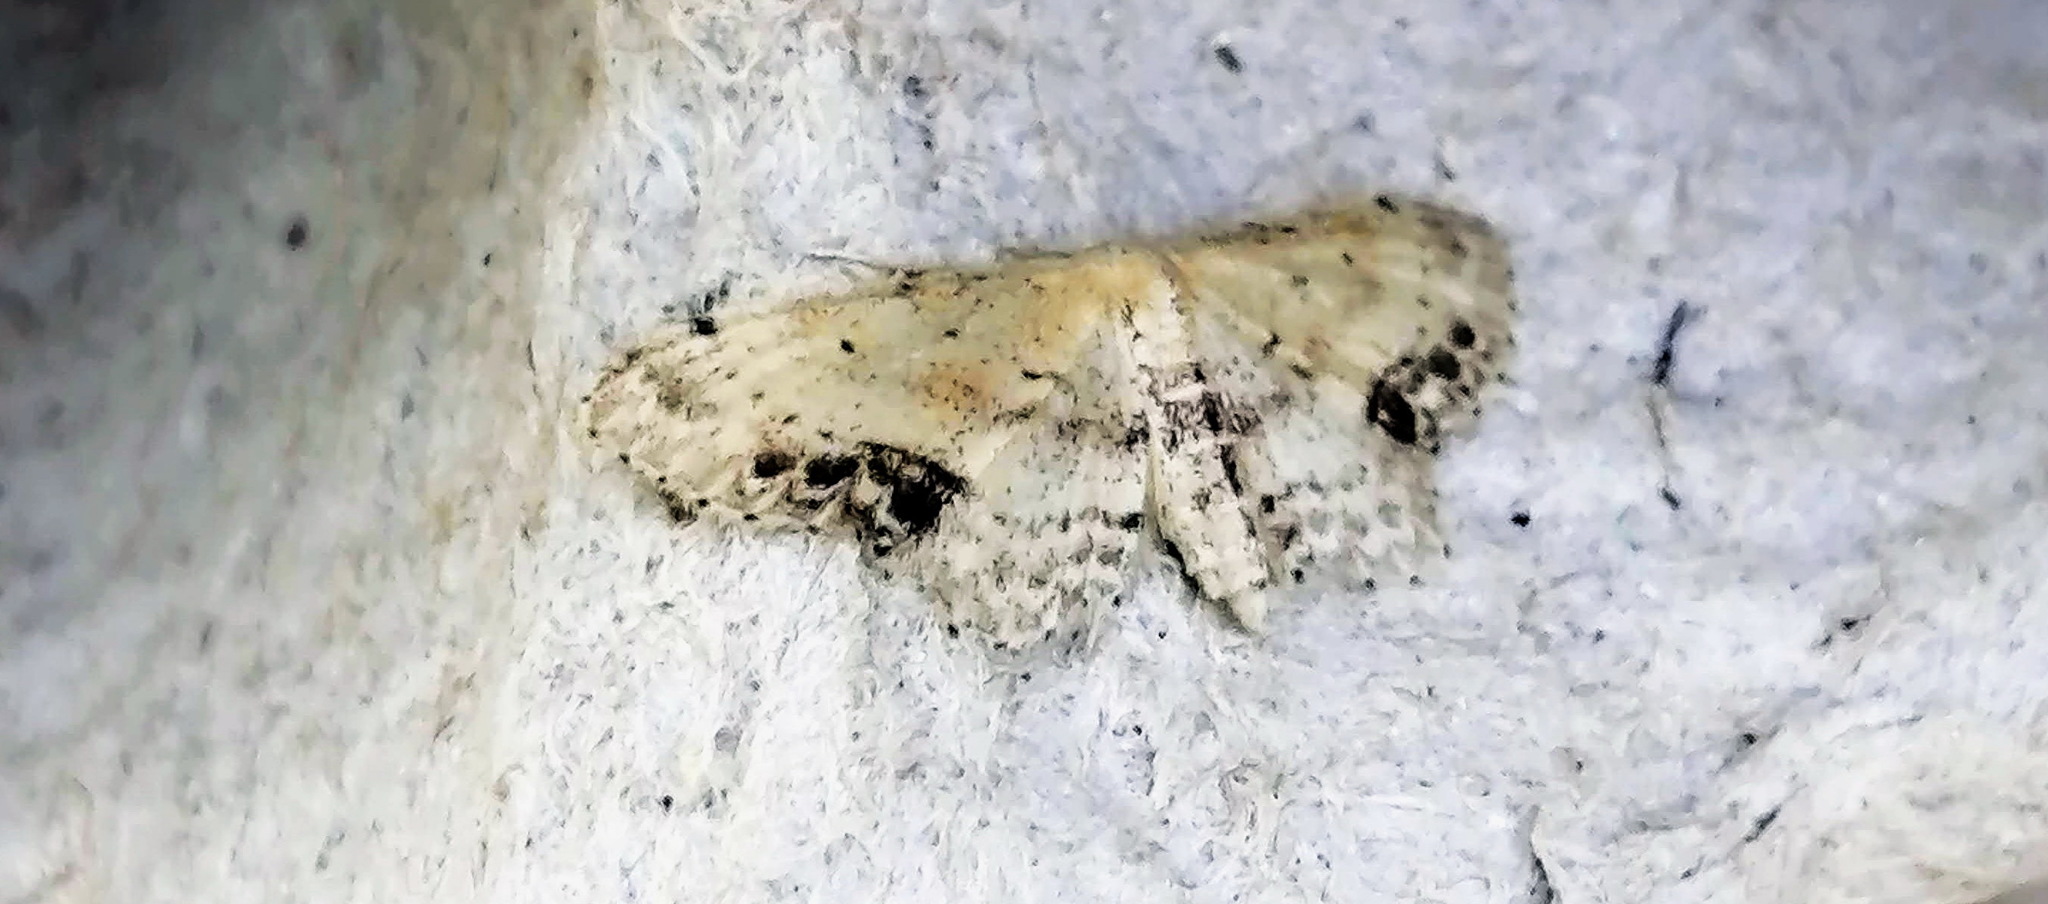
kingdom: Animalia
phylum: Arthropoda
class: Insecta
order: Lepidoptera
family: Geometridae
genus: Idaea
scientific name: Idaea dimidiata
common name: Single-dotted wave
